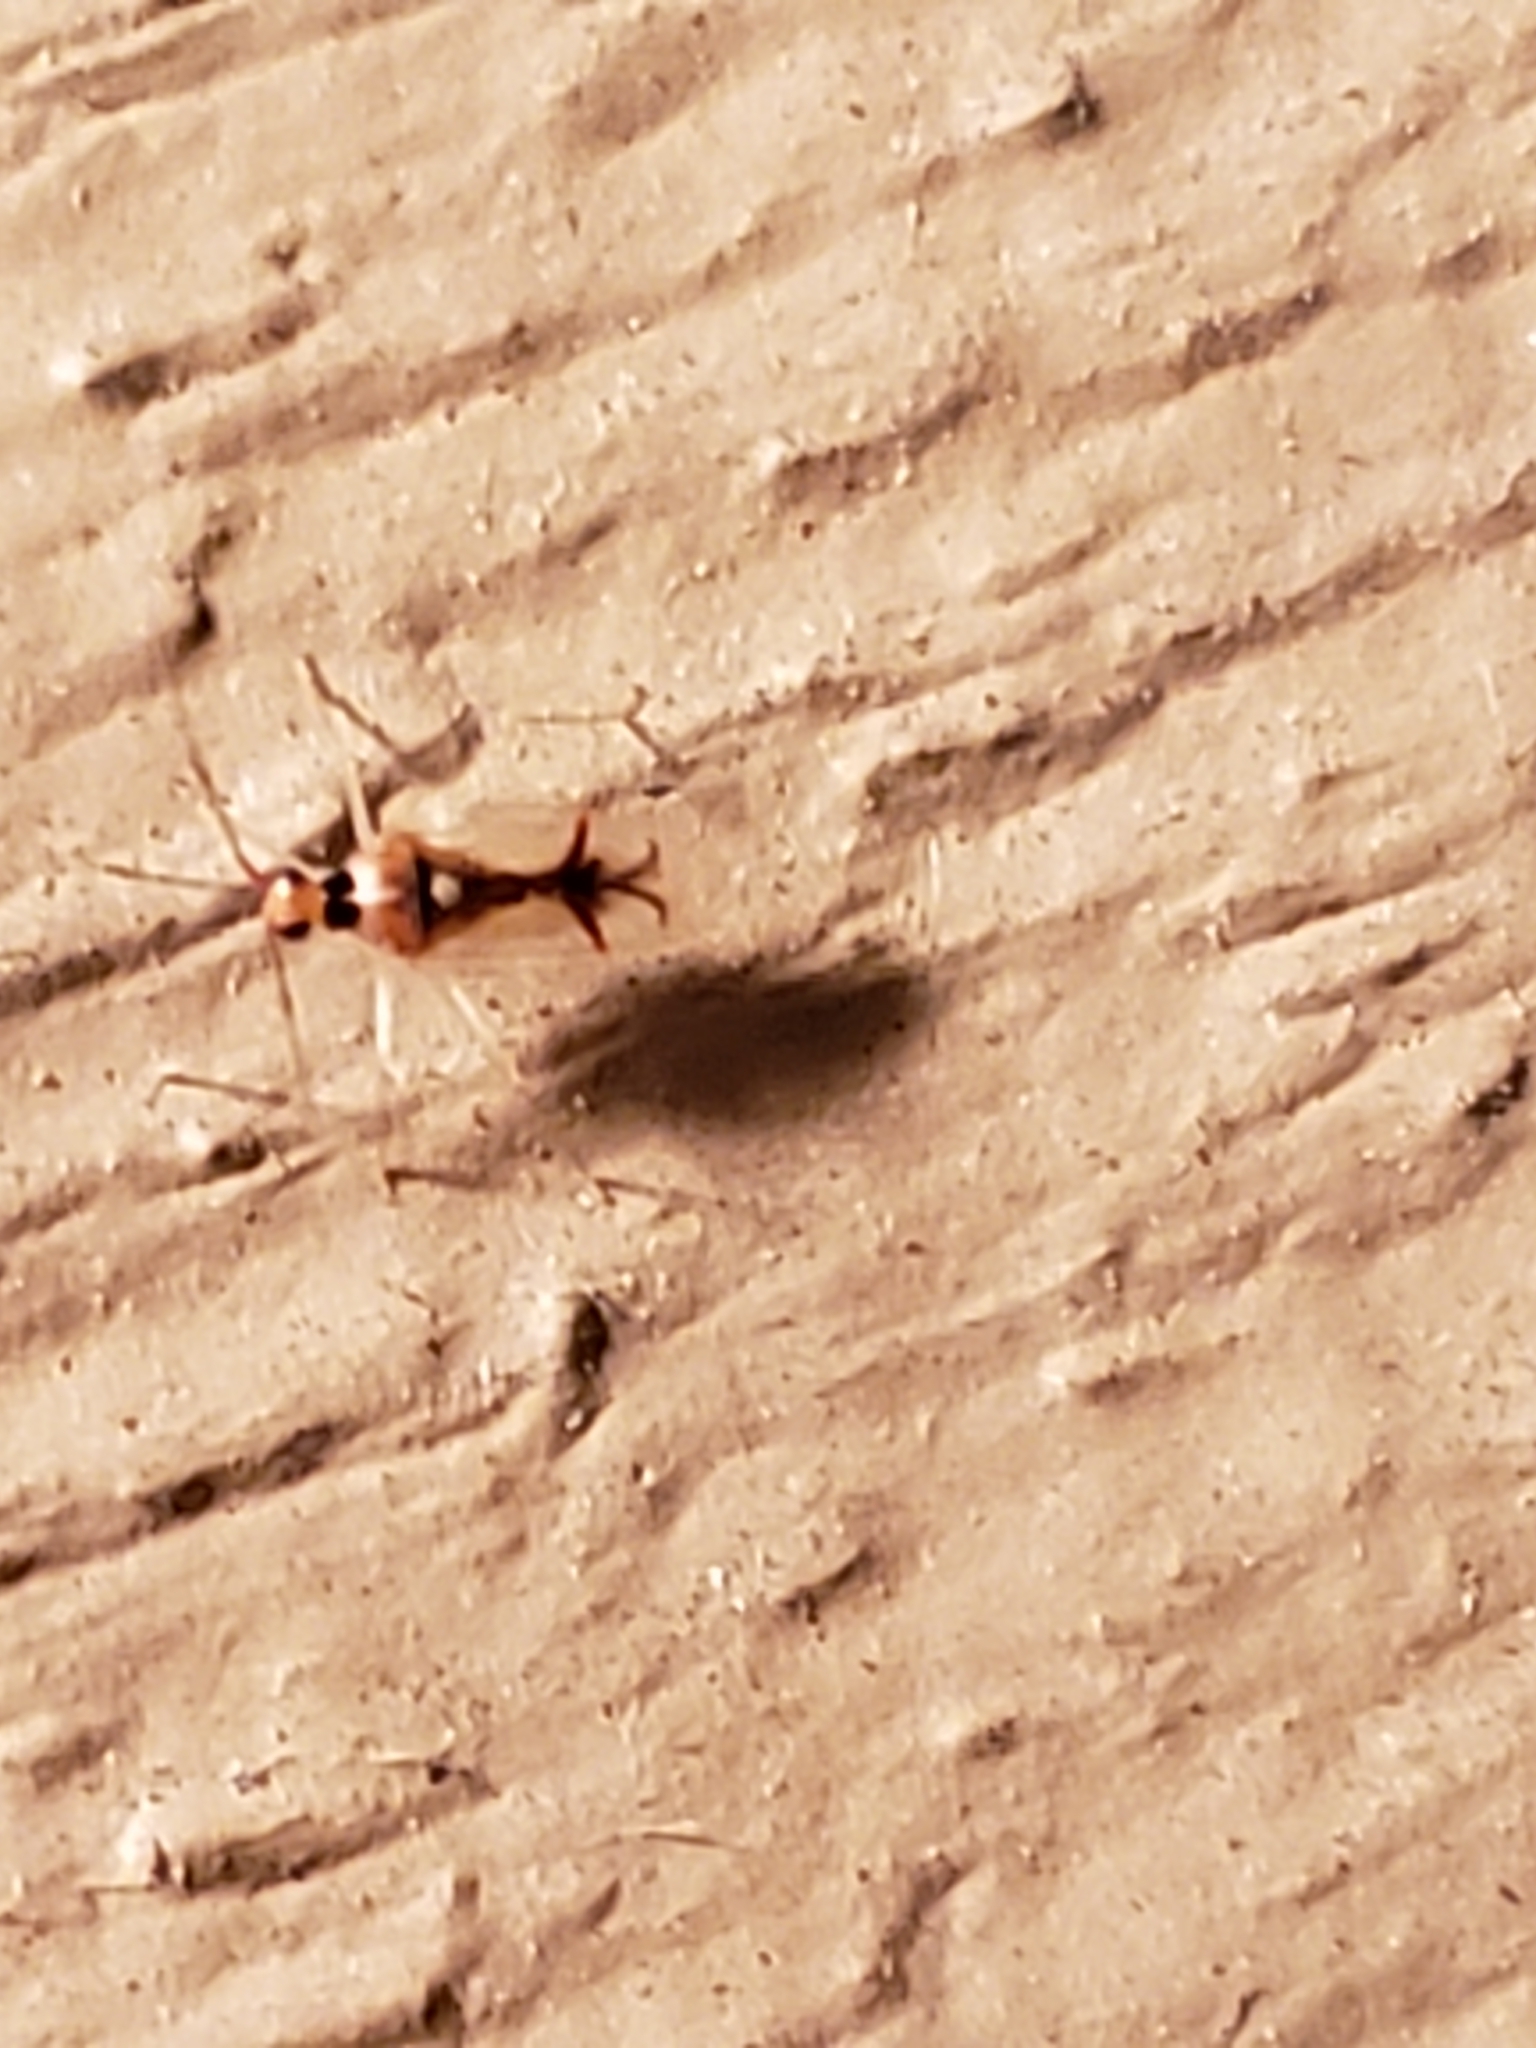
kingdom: Animalia
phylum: Arthropoda
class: Insecta
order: Hemiptera
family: Miridae
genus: Hyaliodes
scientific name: Hyaliodes harti
